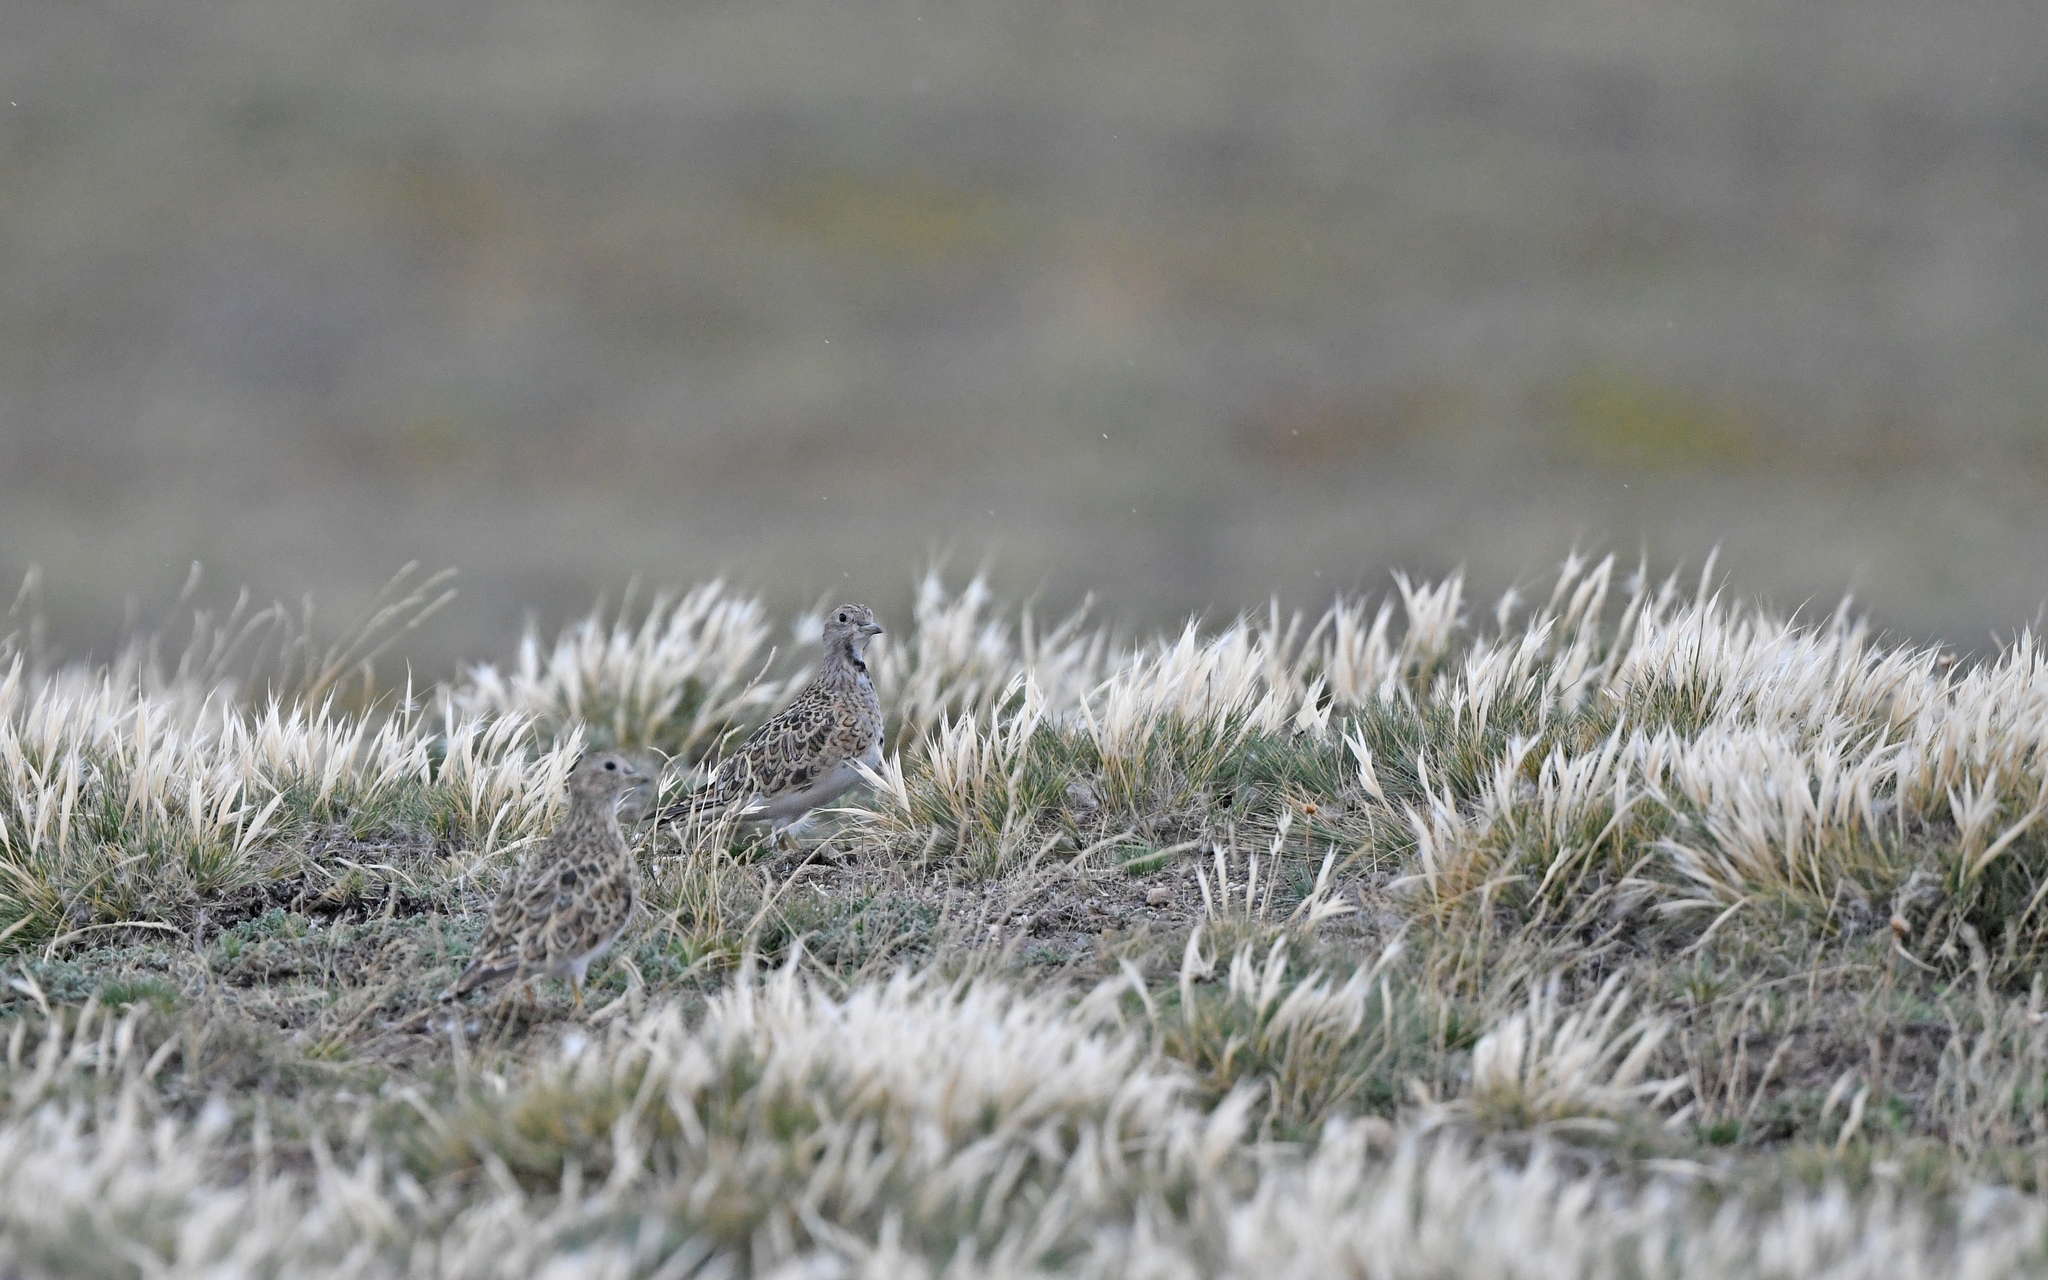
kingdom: Animalia
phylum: Chordata
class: Aves
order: Charadriiformes
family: Thinocoridae
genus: Thinocorus
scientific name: Thinocorus rumicivorus
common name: Least seedsnipe
